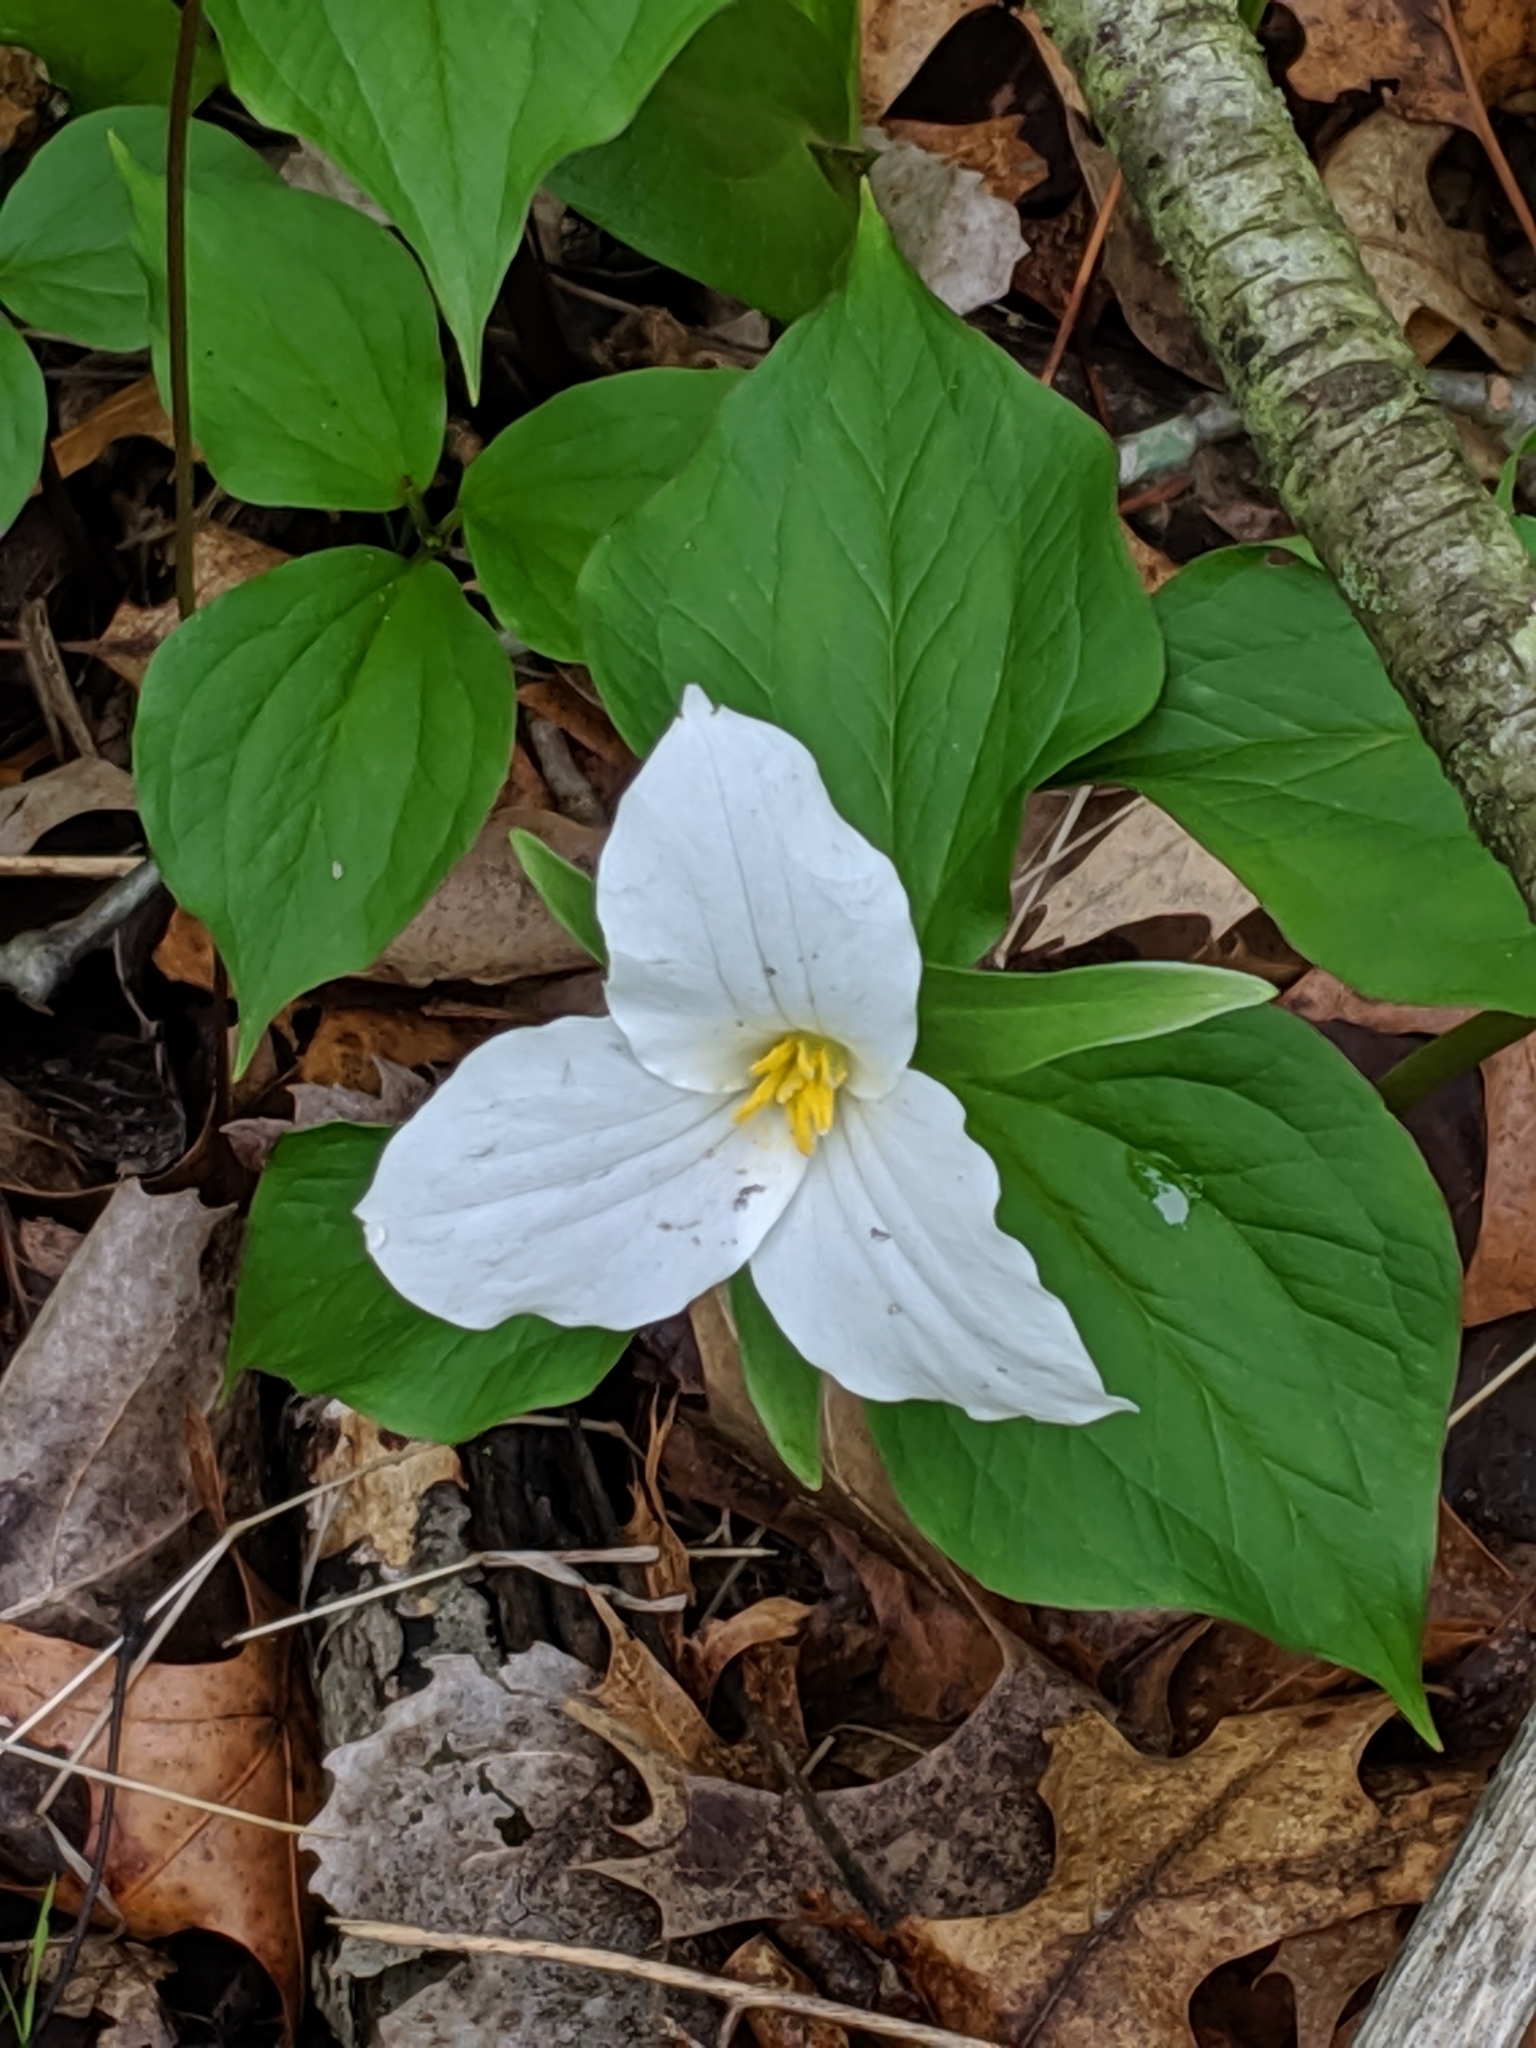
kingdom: Plantae
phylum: Tracheophyta
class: Liliopsida
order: Liliales
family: Melanthiaceae
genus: Trillium
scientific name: Trillium grandiflorum
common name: Great white trillium
